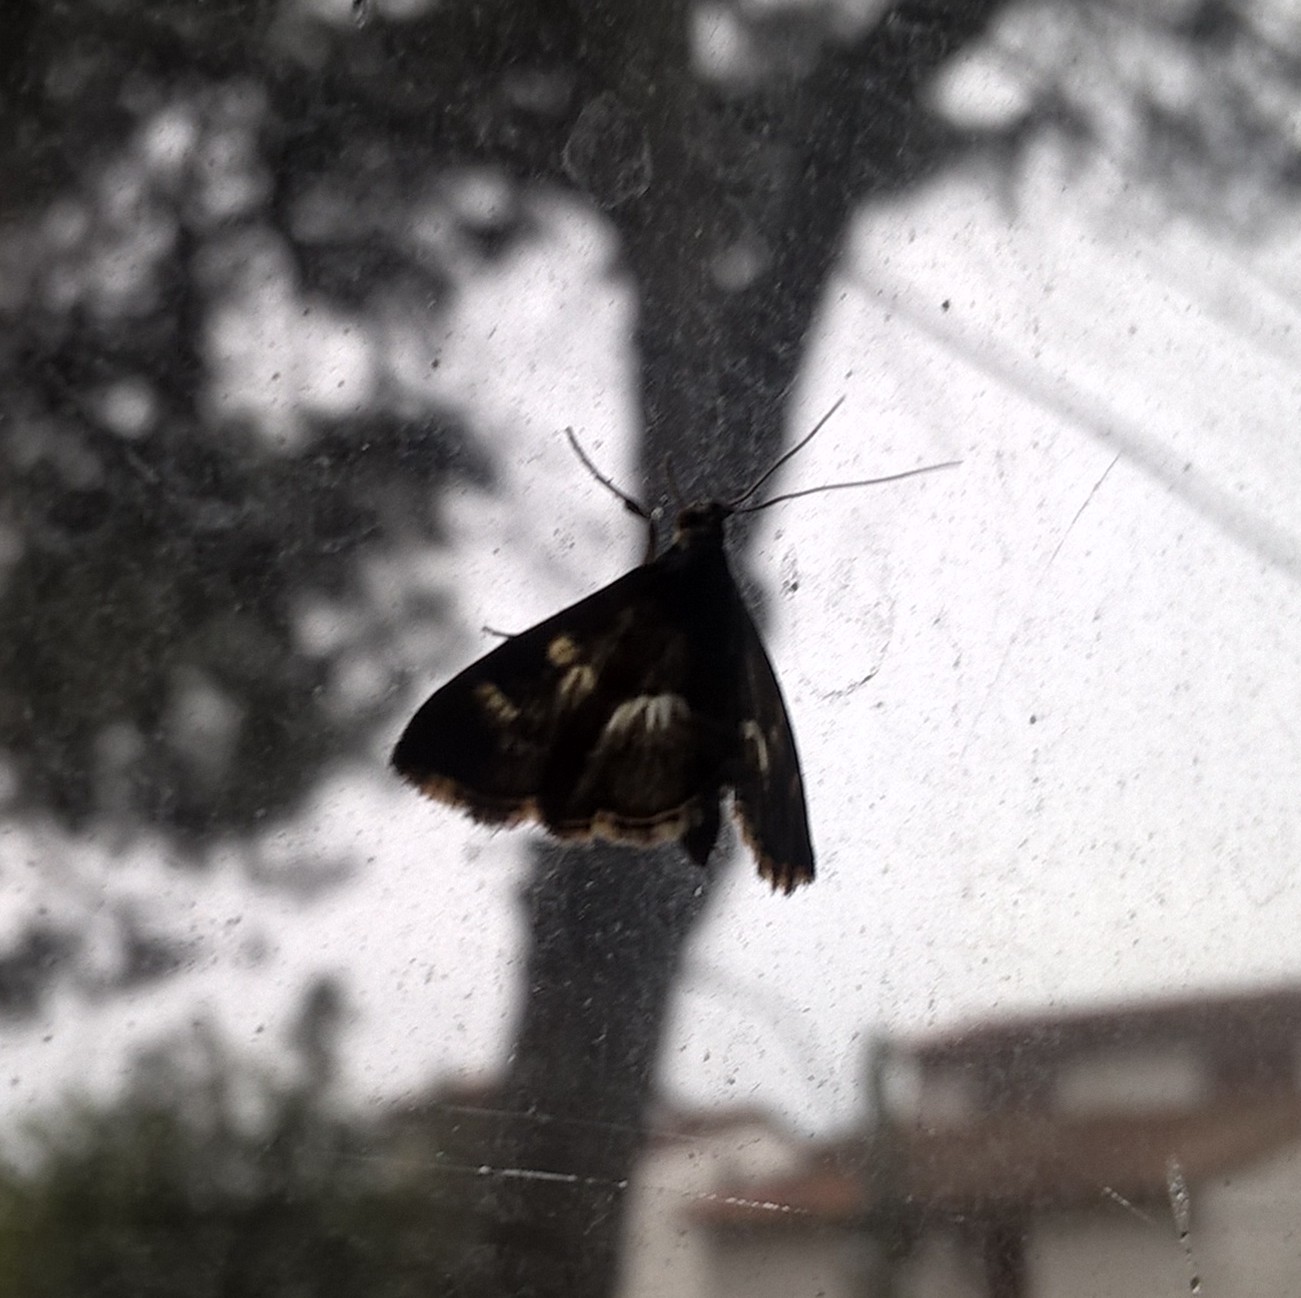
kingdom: Animalia
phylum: Arthropoda
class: Insecta
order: Lepidoptera
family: Crambidae
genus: Hymenia
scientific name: Hymenia perspectalis
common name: Spotted beet webworm
